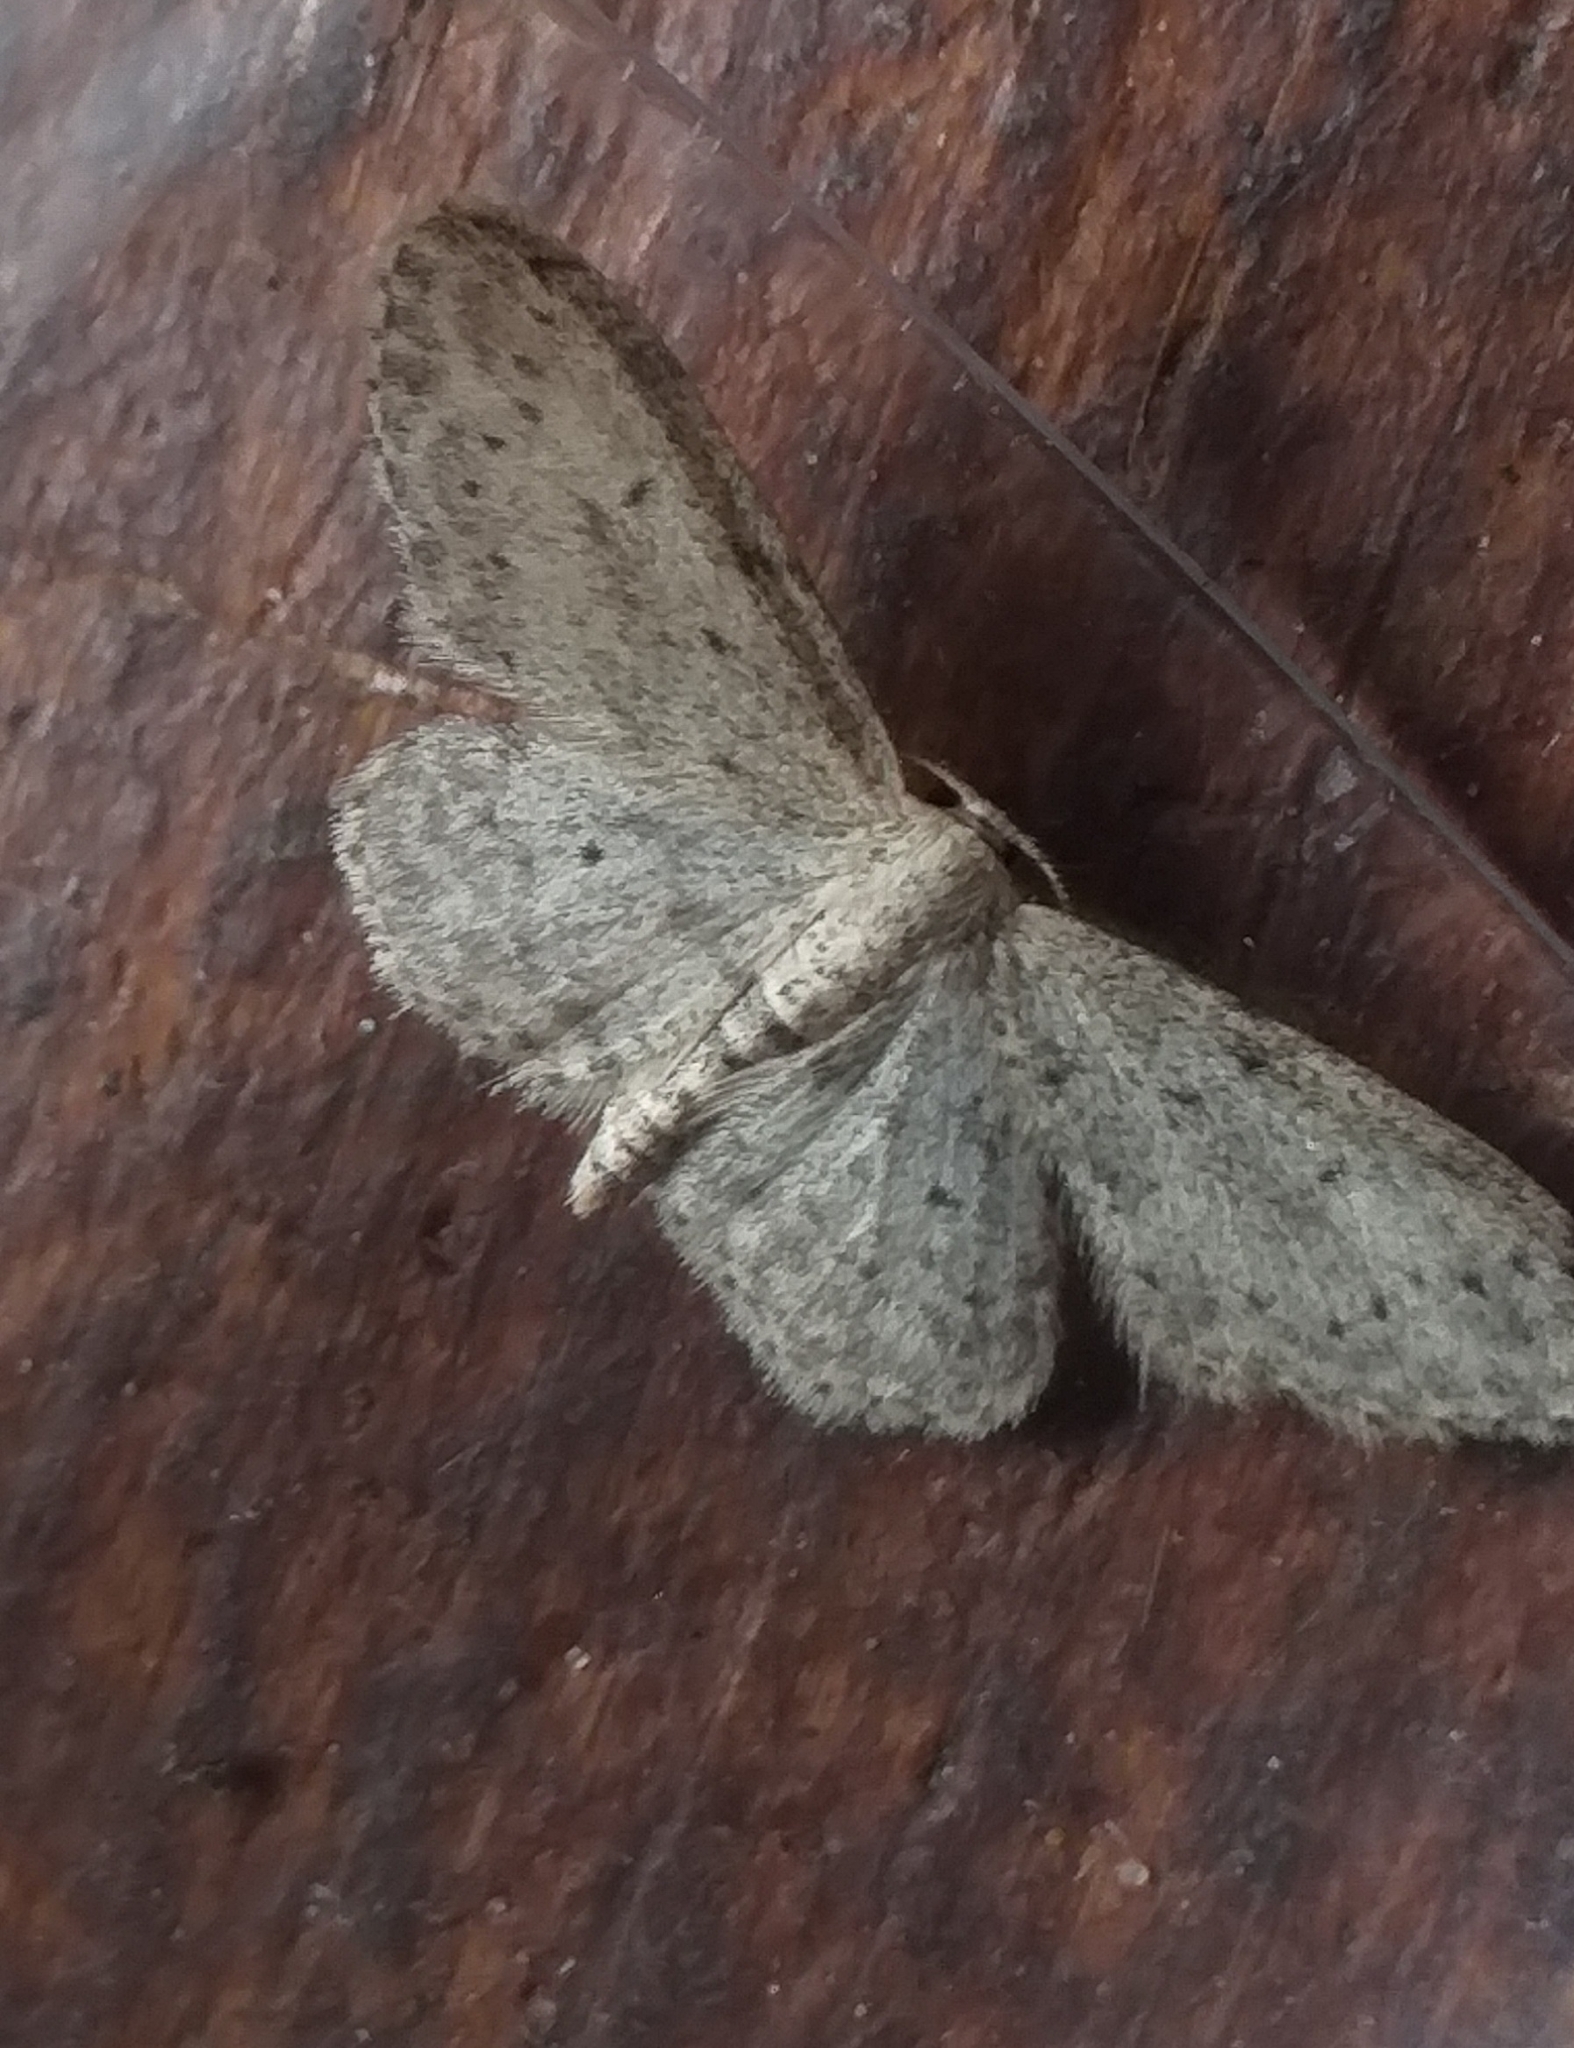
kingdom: Animalia
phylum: Arthropoda
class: Insecta
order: Lepidoptera
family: Geometridae
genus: Idaea
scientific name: Idaea seriata
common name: Small dusty wave
